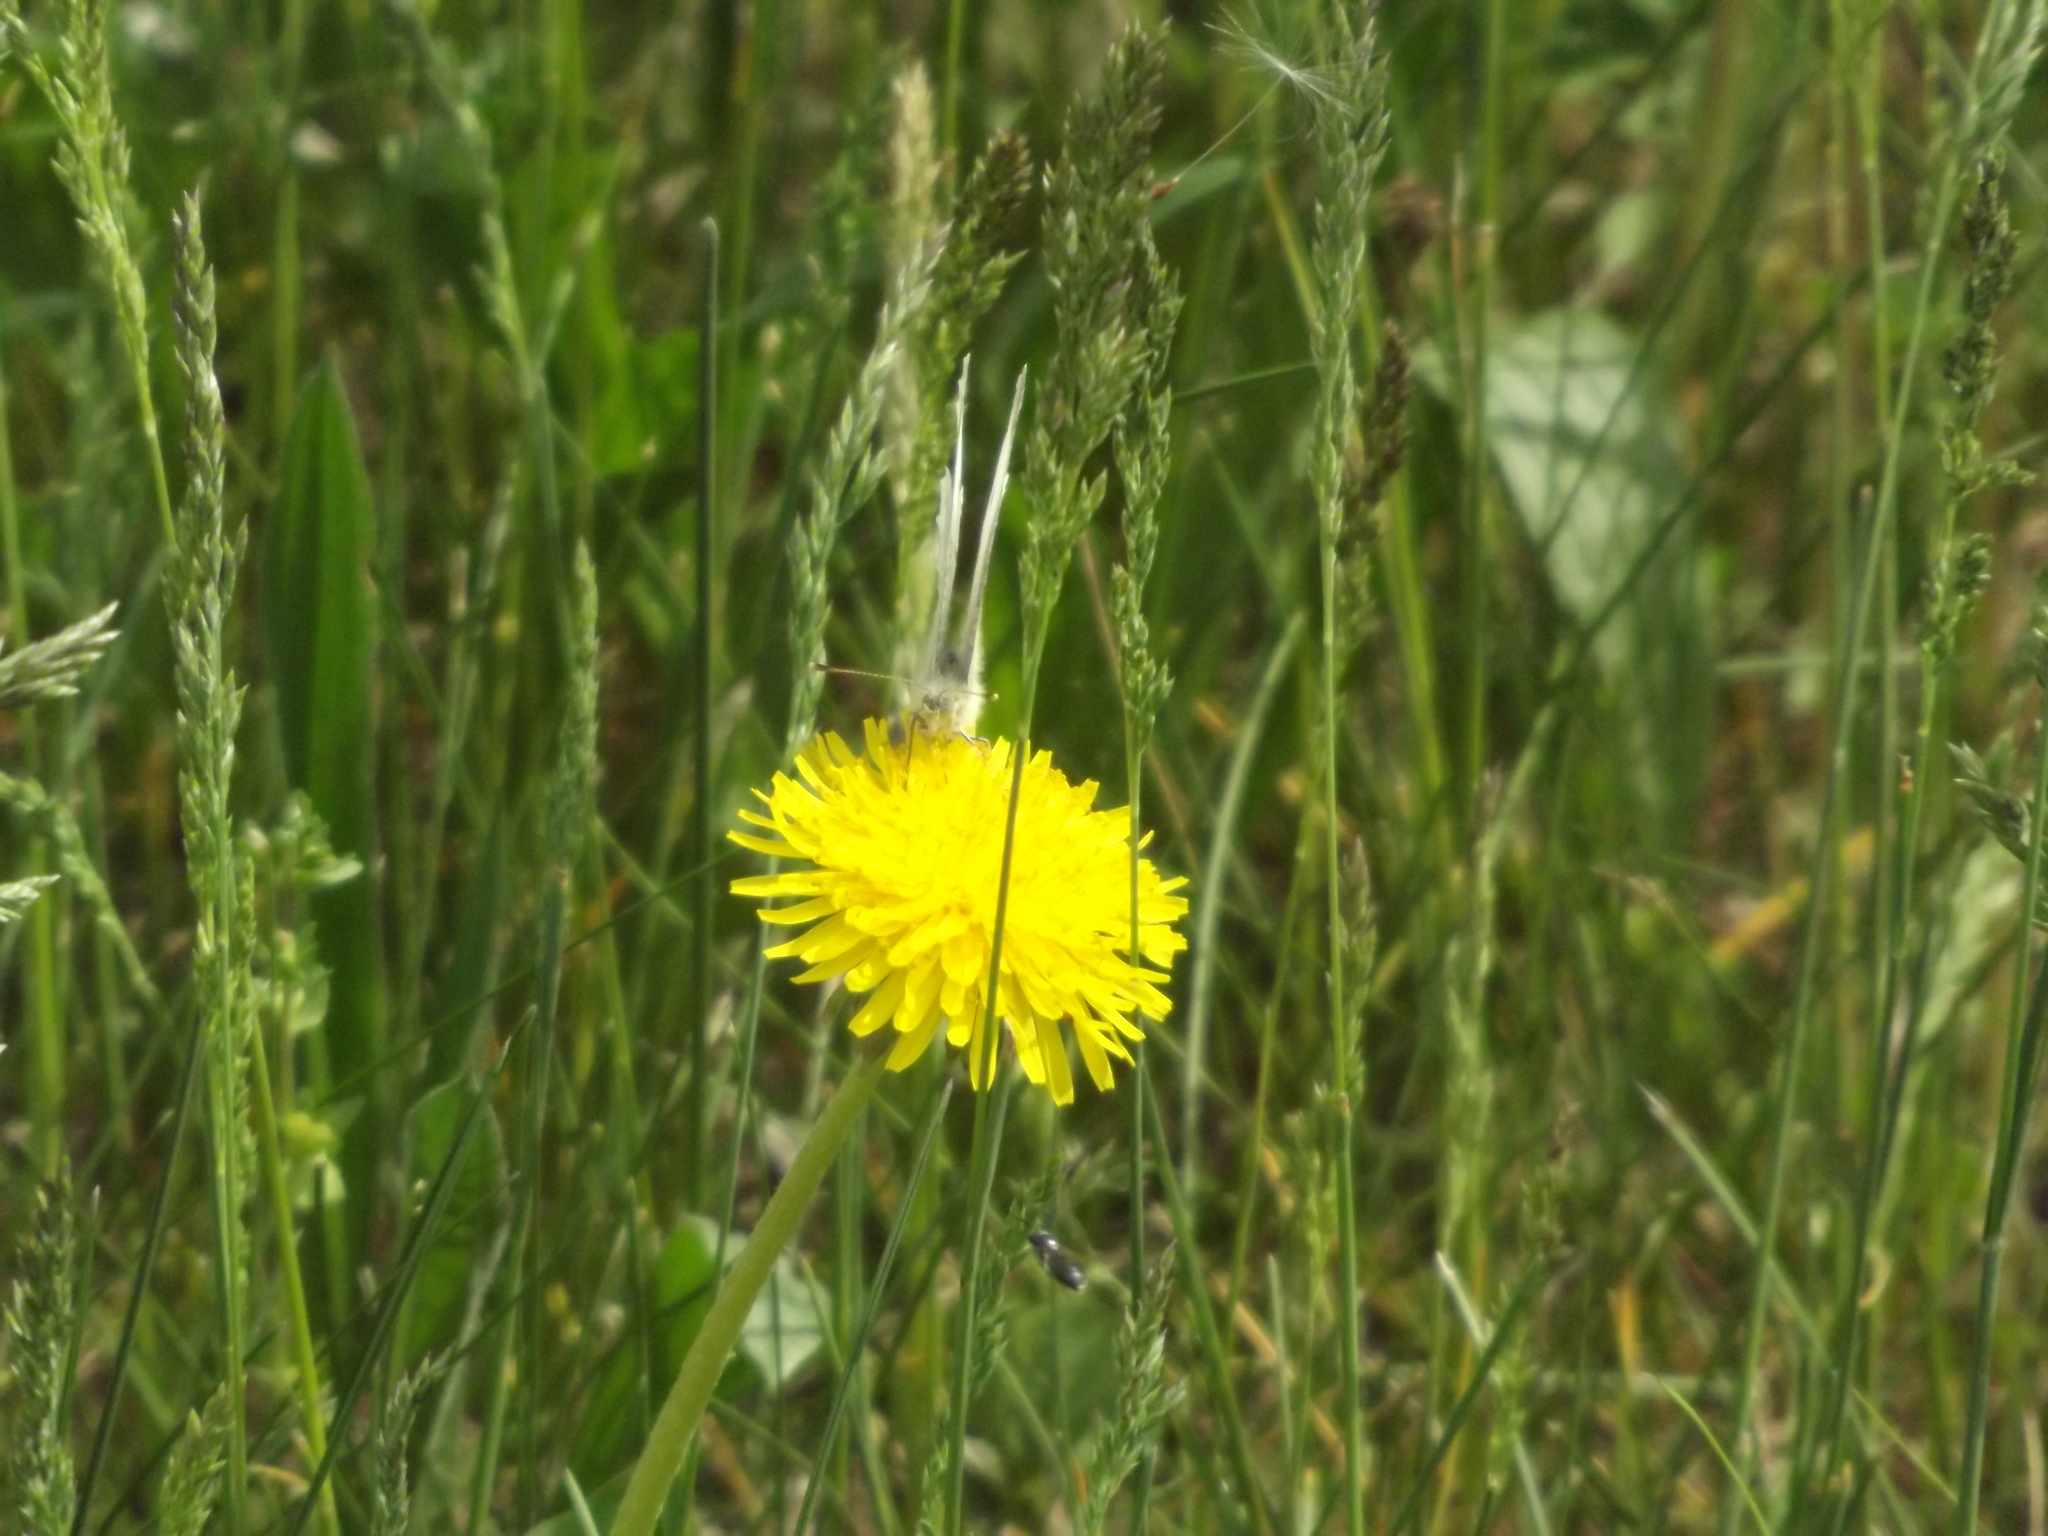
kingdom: Animalia
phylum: Arthropoda
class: Insecta
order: Lepidoptera
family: Pieridae
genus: Pieris
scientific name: Pieris rapae
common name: Small white
